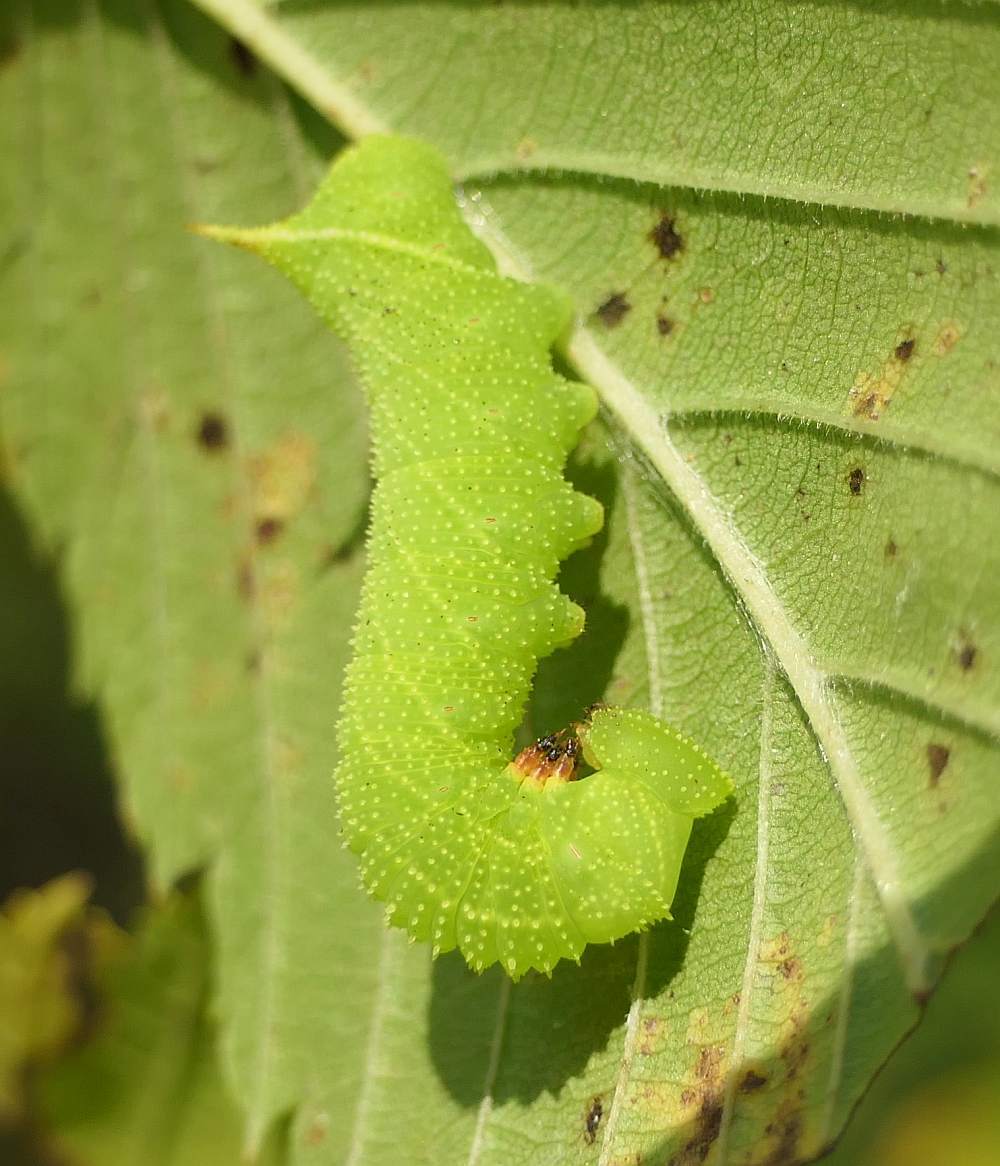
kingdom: Animalia
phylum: Arthropoda
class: Insecta
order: Lepidoptera
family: Sphingidae
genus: Paonias
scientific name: Paonias excaecata
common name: Blind-eyed sphinx
